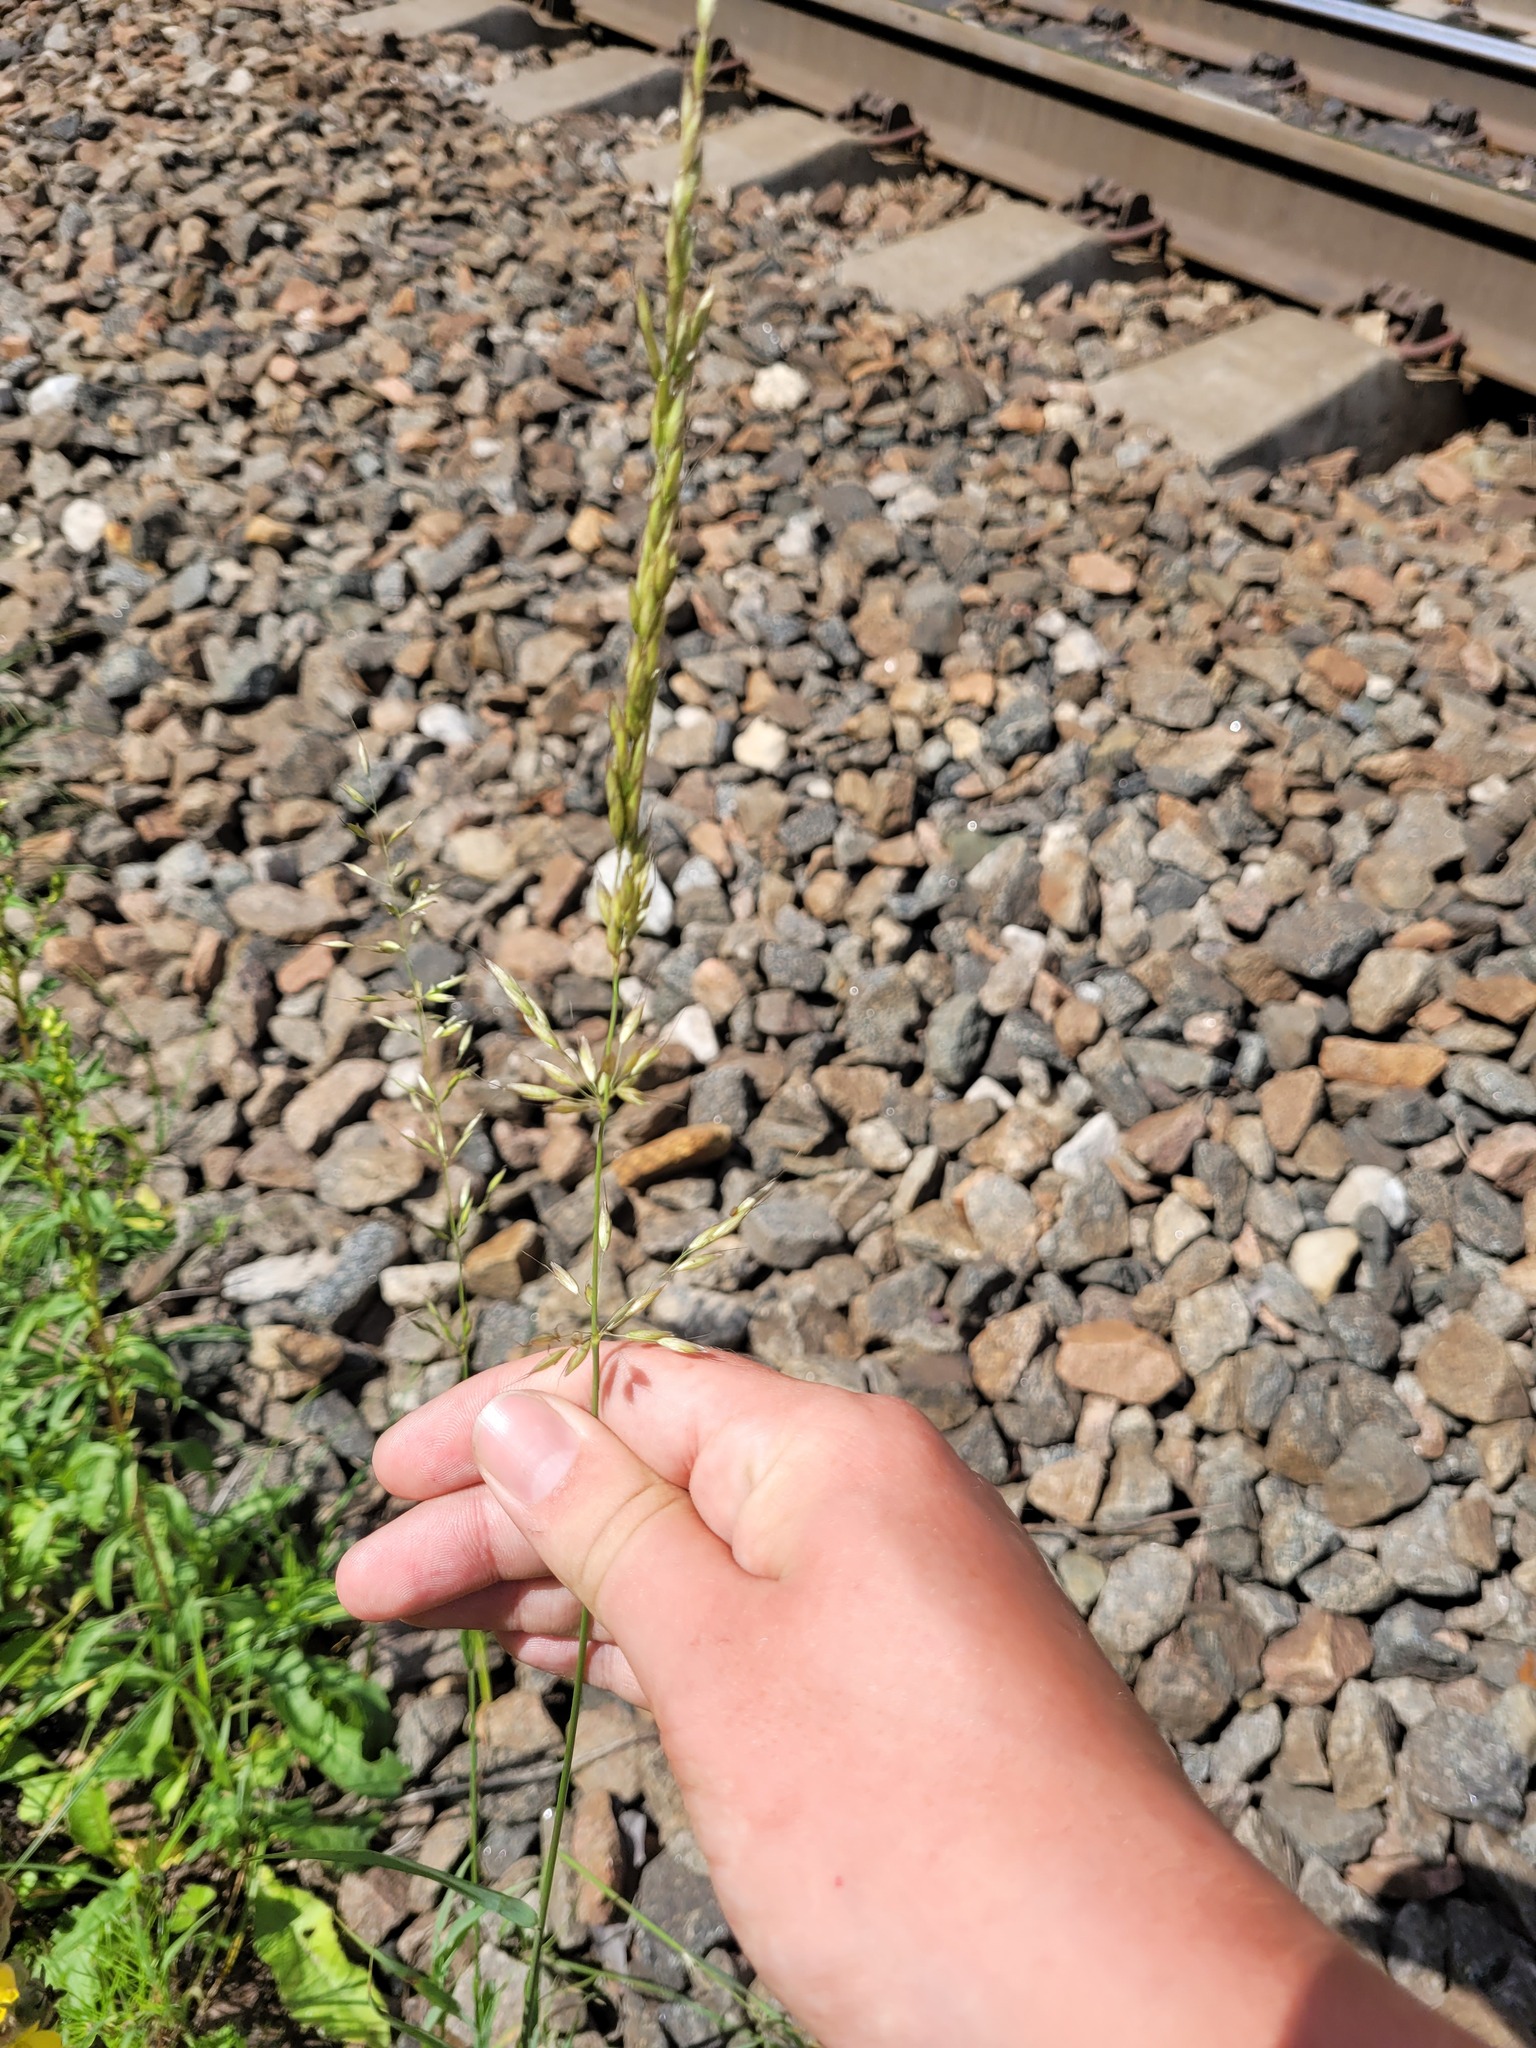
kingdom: Plantae
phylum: Tracheophyta
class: Liliopsida
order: Poales
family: Poaceae
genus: Arrhenatherum
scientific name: Arrhenatherum elatius
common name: Tall oatgrass
